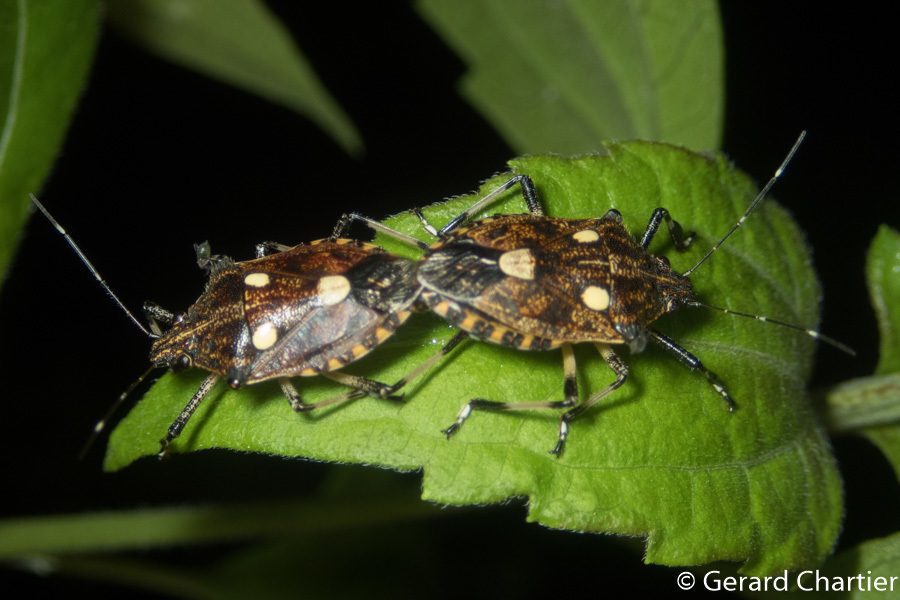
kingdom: Animalia
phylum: Arthropoda
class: Insecta
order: Hemiptera
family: Pentatomidae
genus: Dalpada
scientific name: Dalpada oculata
